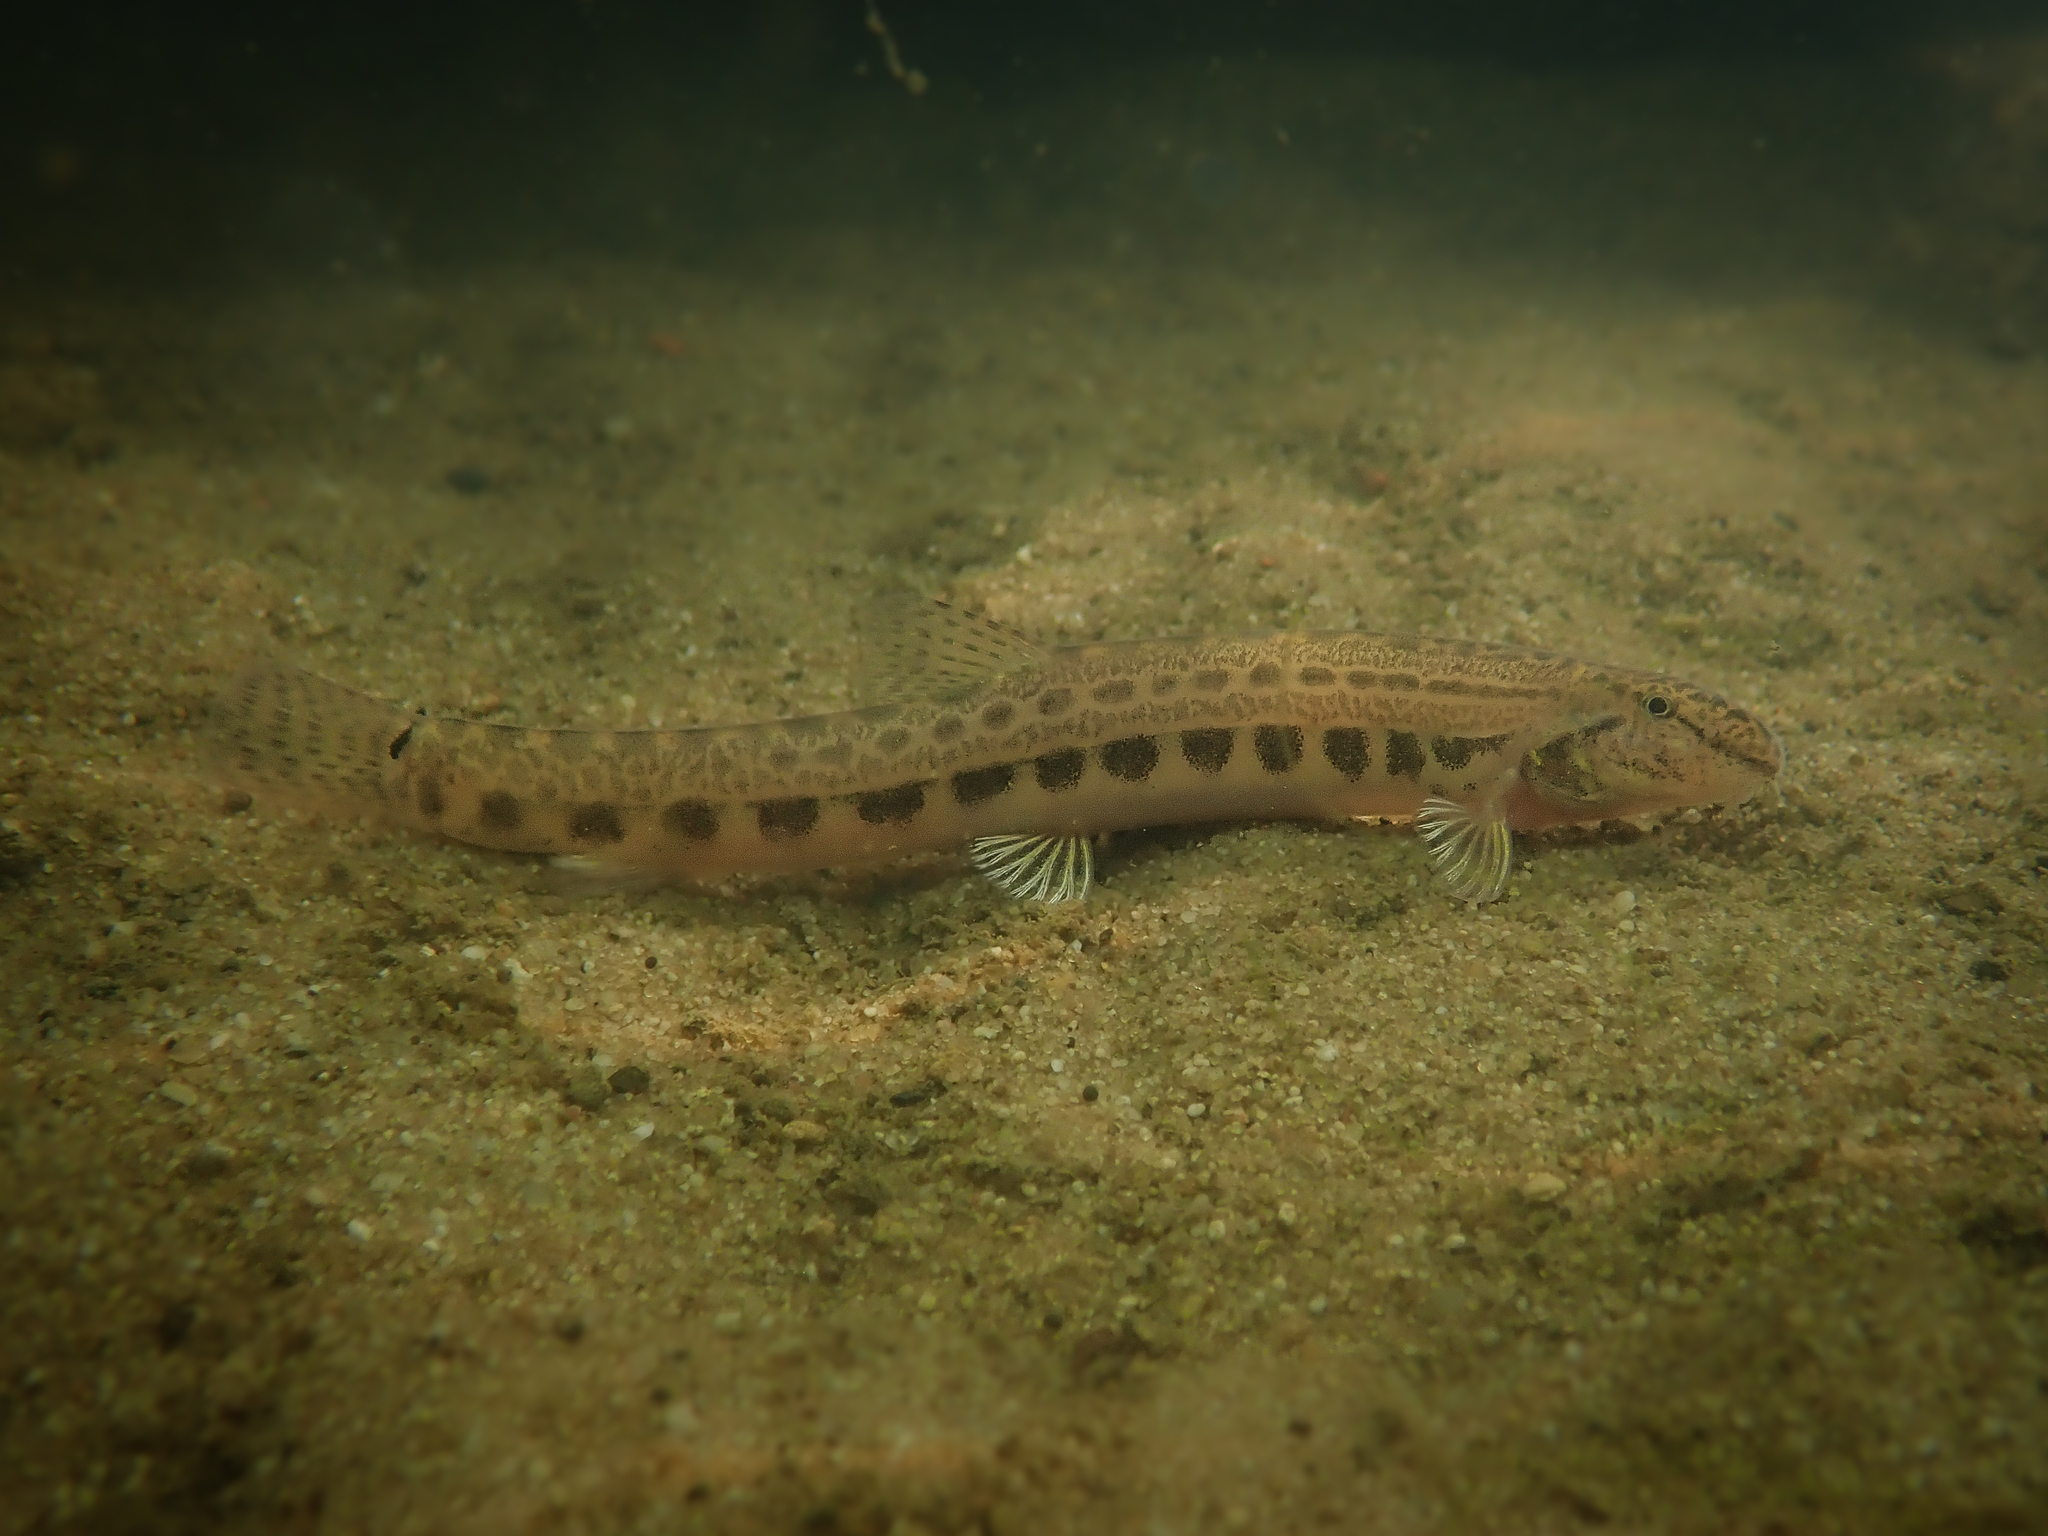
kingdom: Animalia
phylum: Chordata
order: Cypriniformes
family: Cobitidae
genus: Cobitis
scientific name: Cobitis taenia
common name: Spined loach
